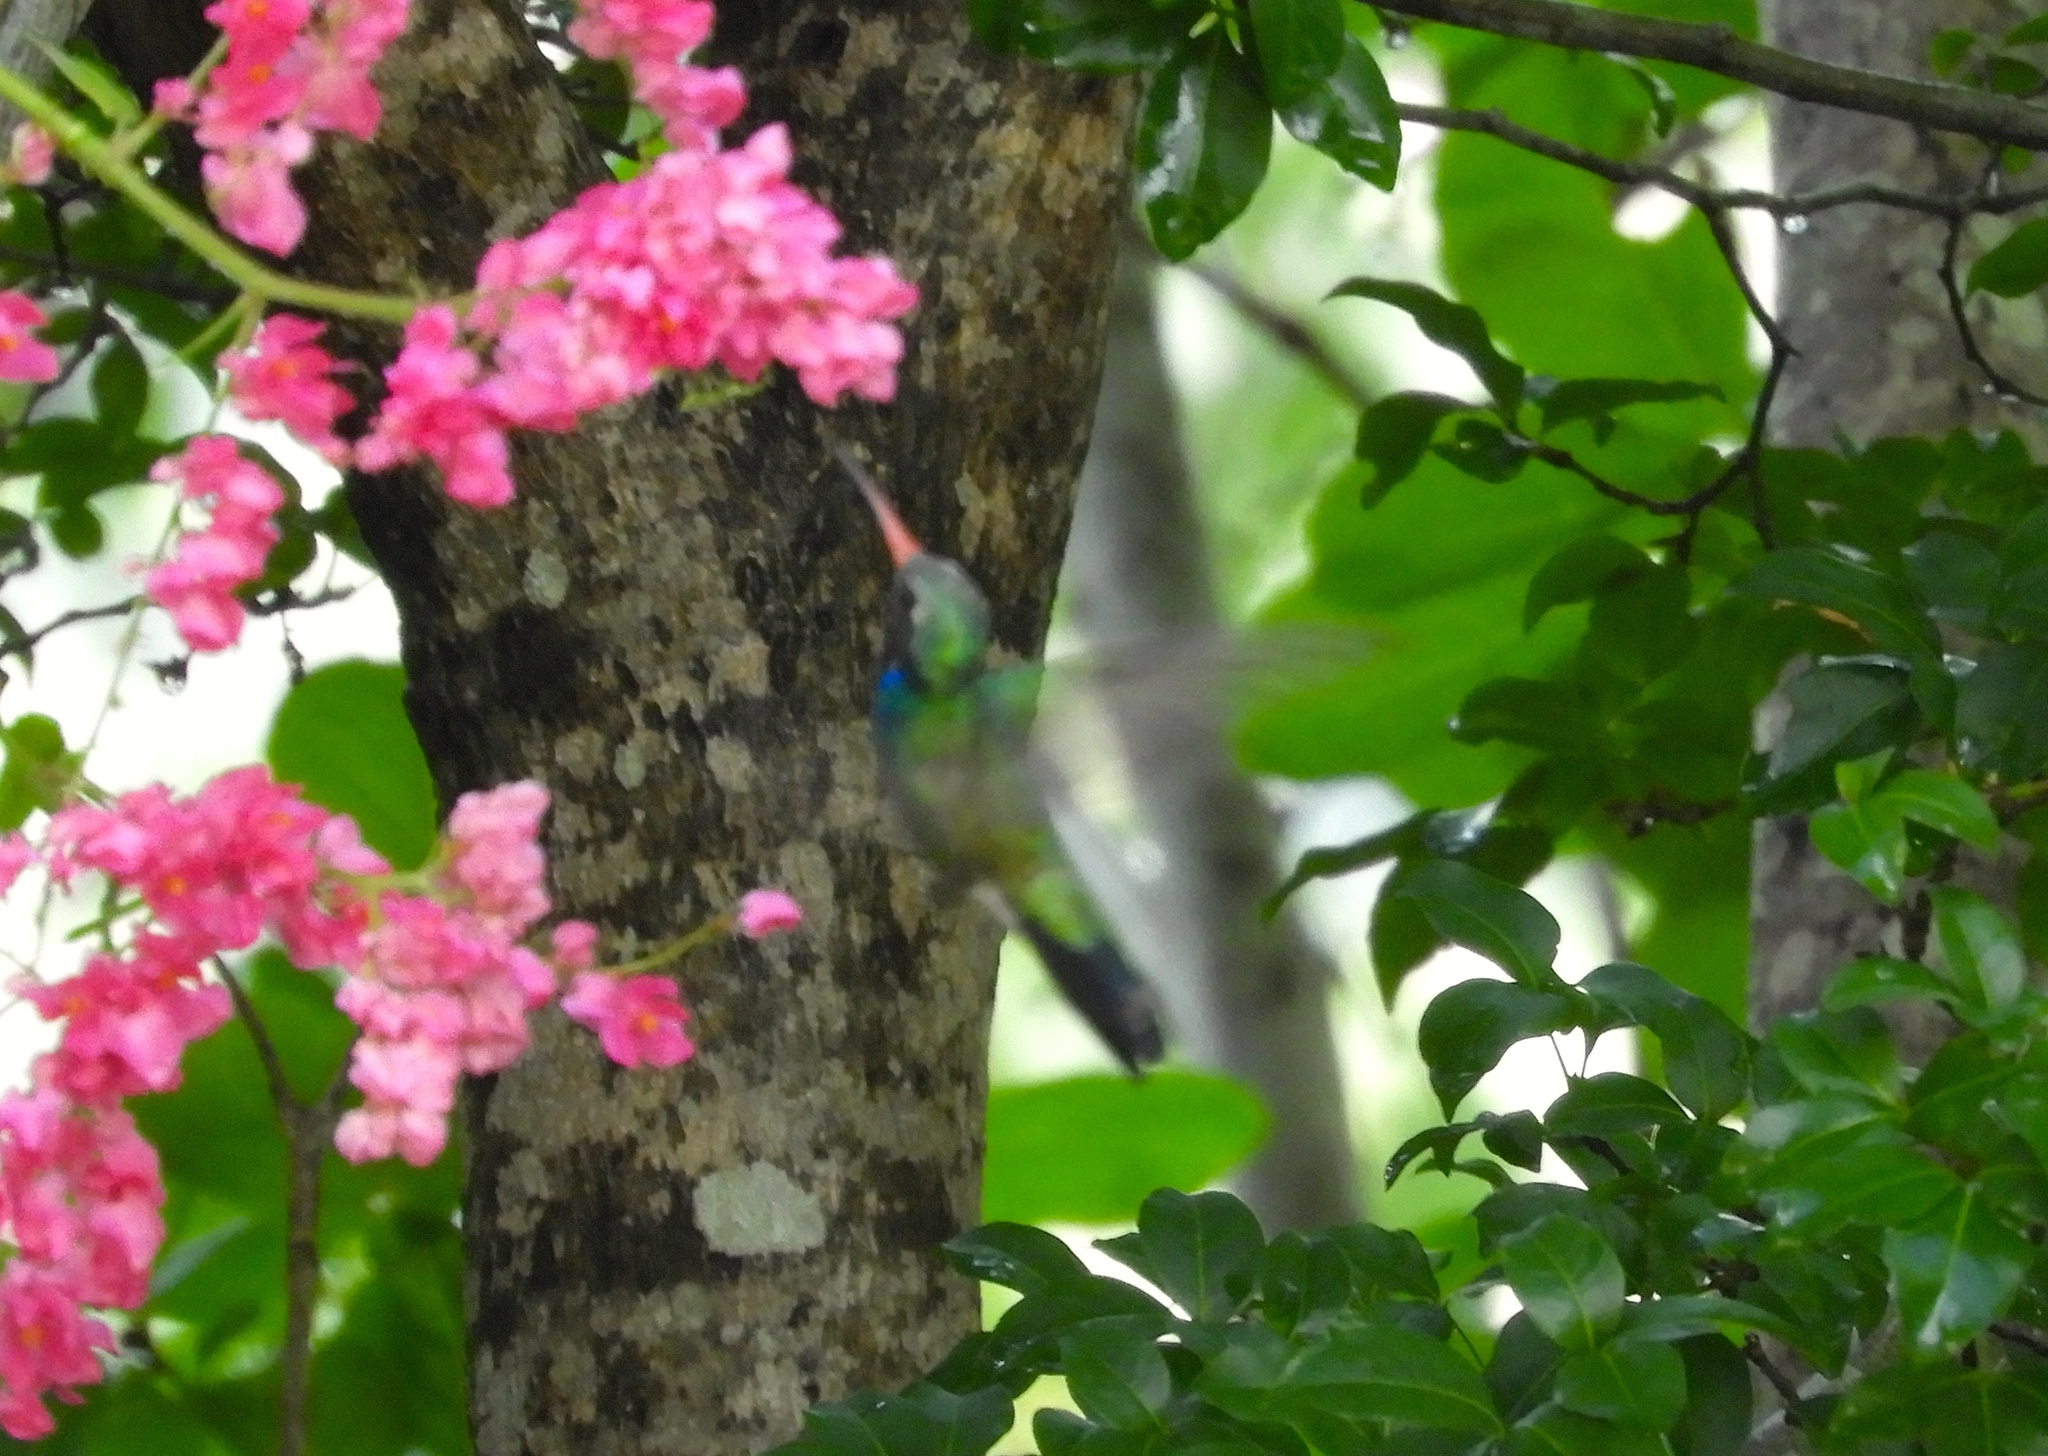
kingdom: Animalia
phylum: Chordata
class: Aves
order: Apodiformes
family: Trochilidae
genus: Cynanthus
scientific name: Cynanthus latirostris
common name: Broad-billed hummingbird
